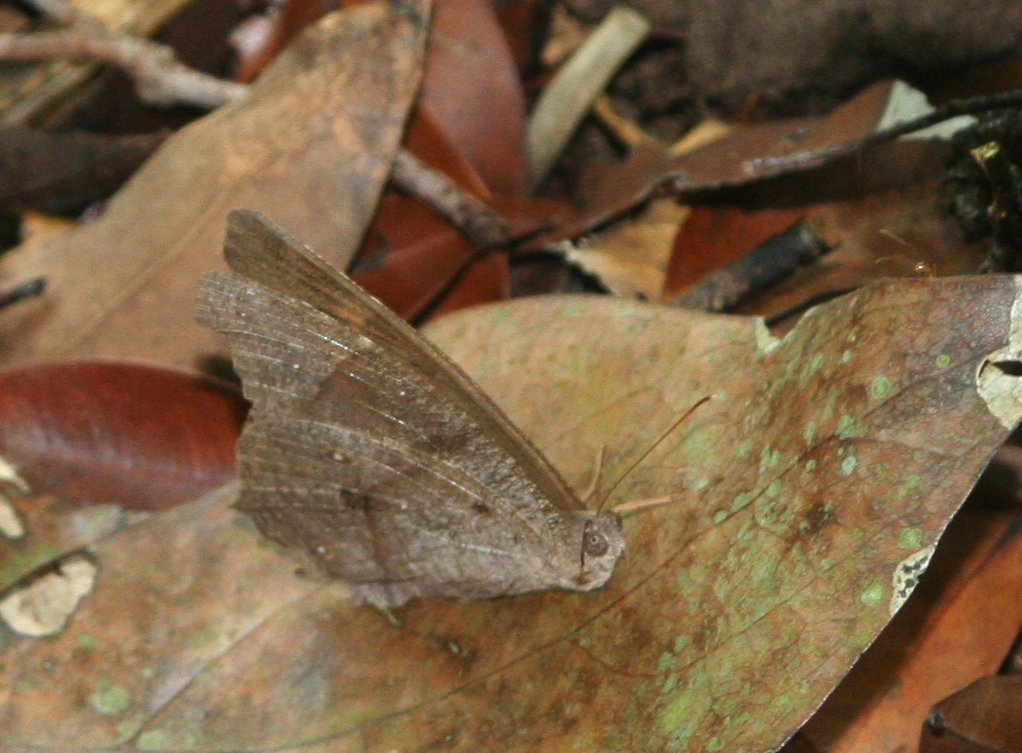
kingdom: Animalia
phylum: Arthropoda
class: Insecta
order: Lepidoptera
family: Nymphalidae
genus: Melanitis
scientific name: Melanitis leda
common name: Twilight brown
